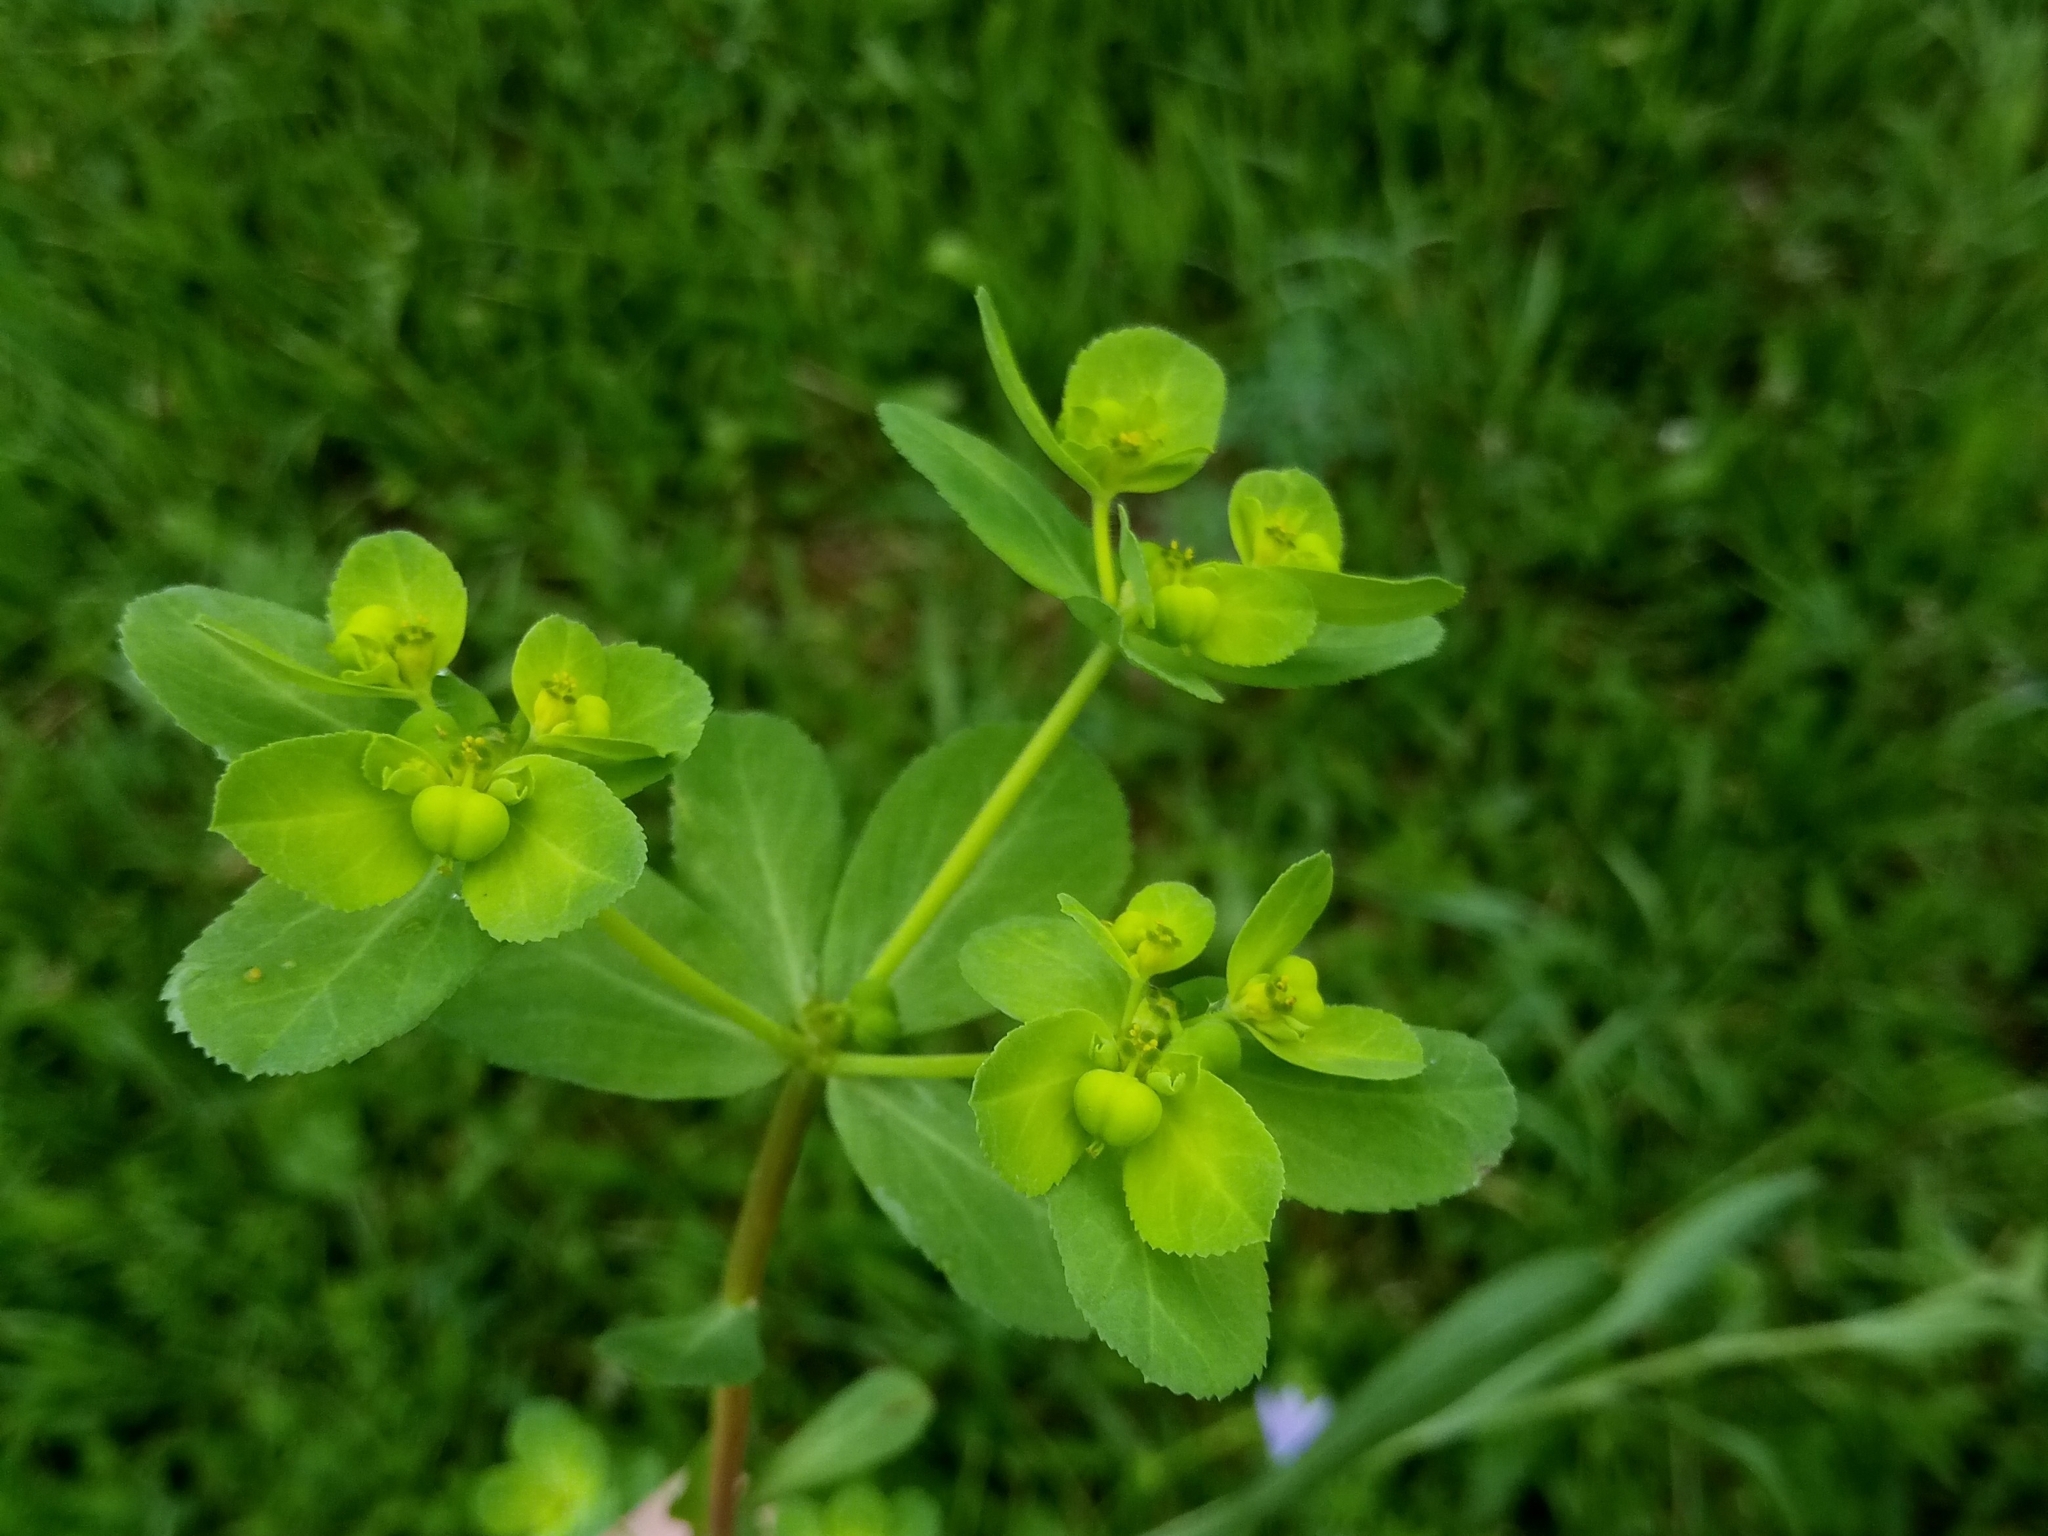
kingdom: Plantae
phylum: Tracheophyta
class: Magnoliopsida
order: Malpighiales
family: Euphorbiaceae
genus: Euphorbia
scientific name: Euphorbia helioscopia
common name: Sun spurge
